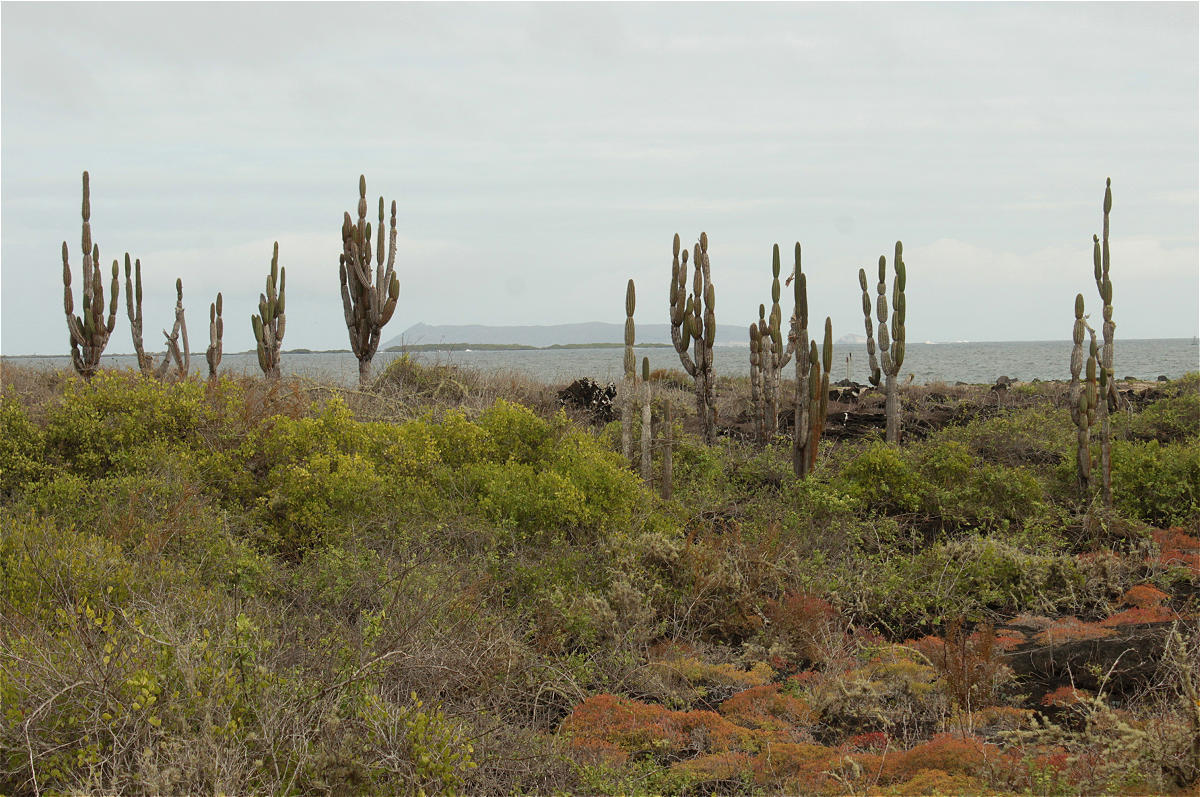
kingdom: Plantae
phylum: Tracheophyta
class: Magnoliopsida
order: Caryophyllales
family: Cactaceae
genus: Jasminocereus
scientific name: Jasminocereus thouarsii
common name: Candelabra cactus
